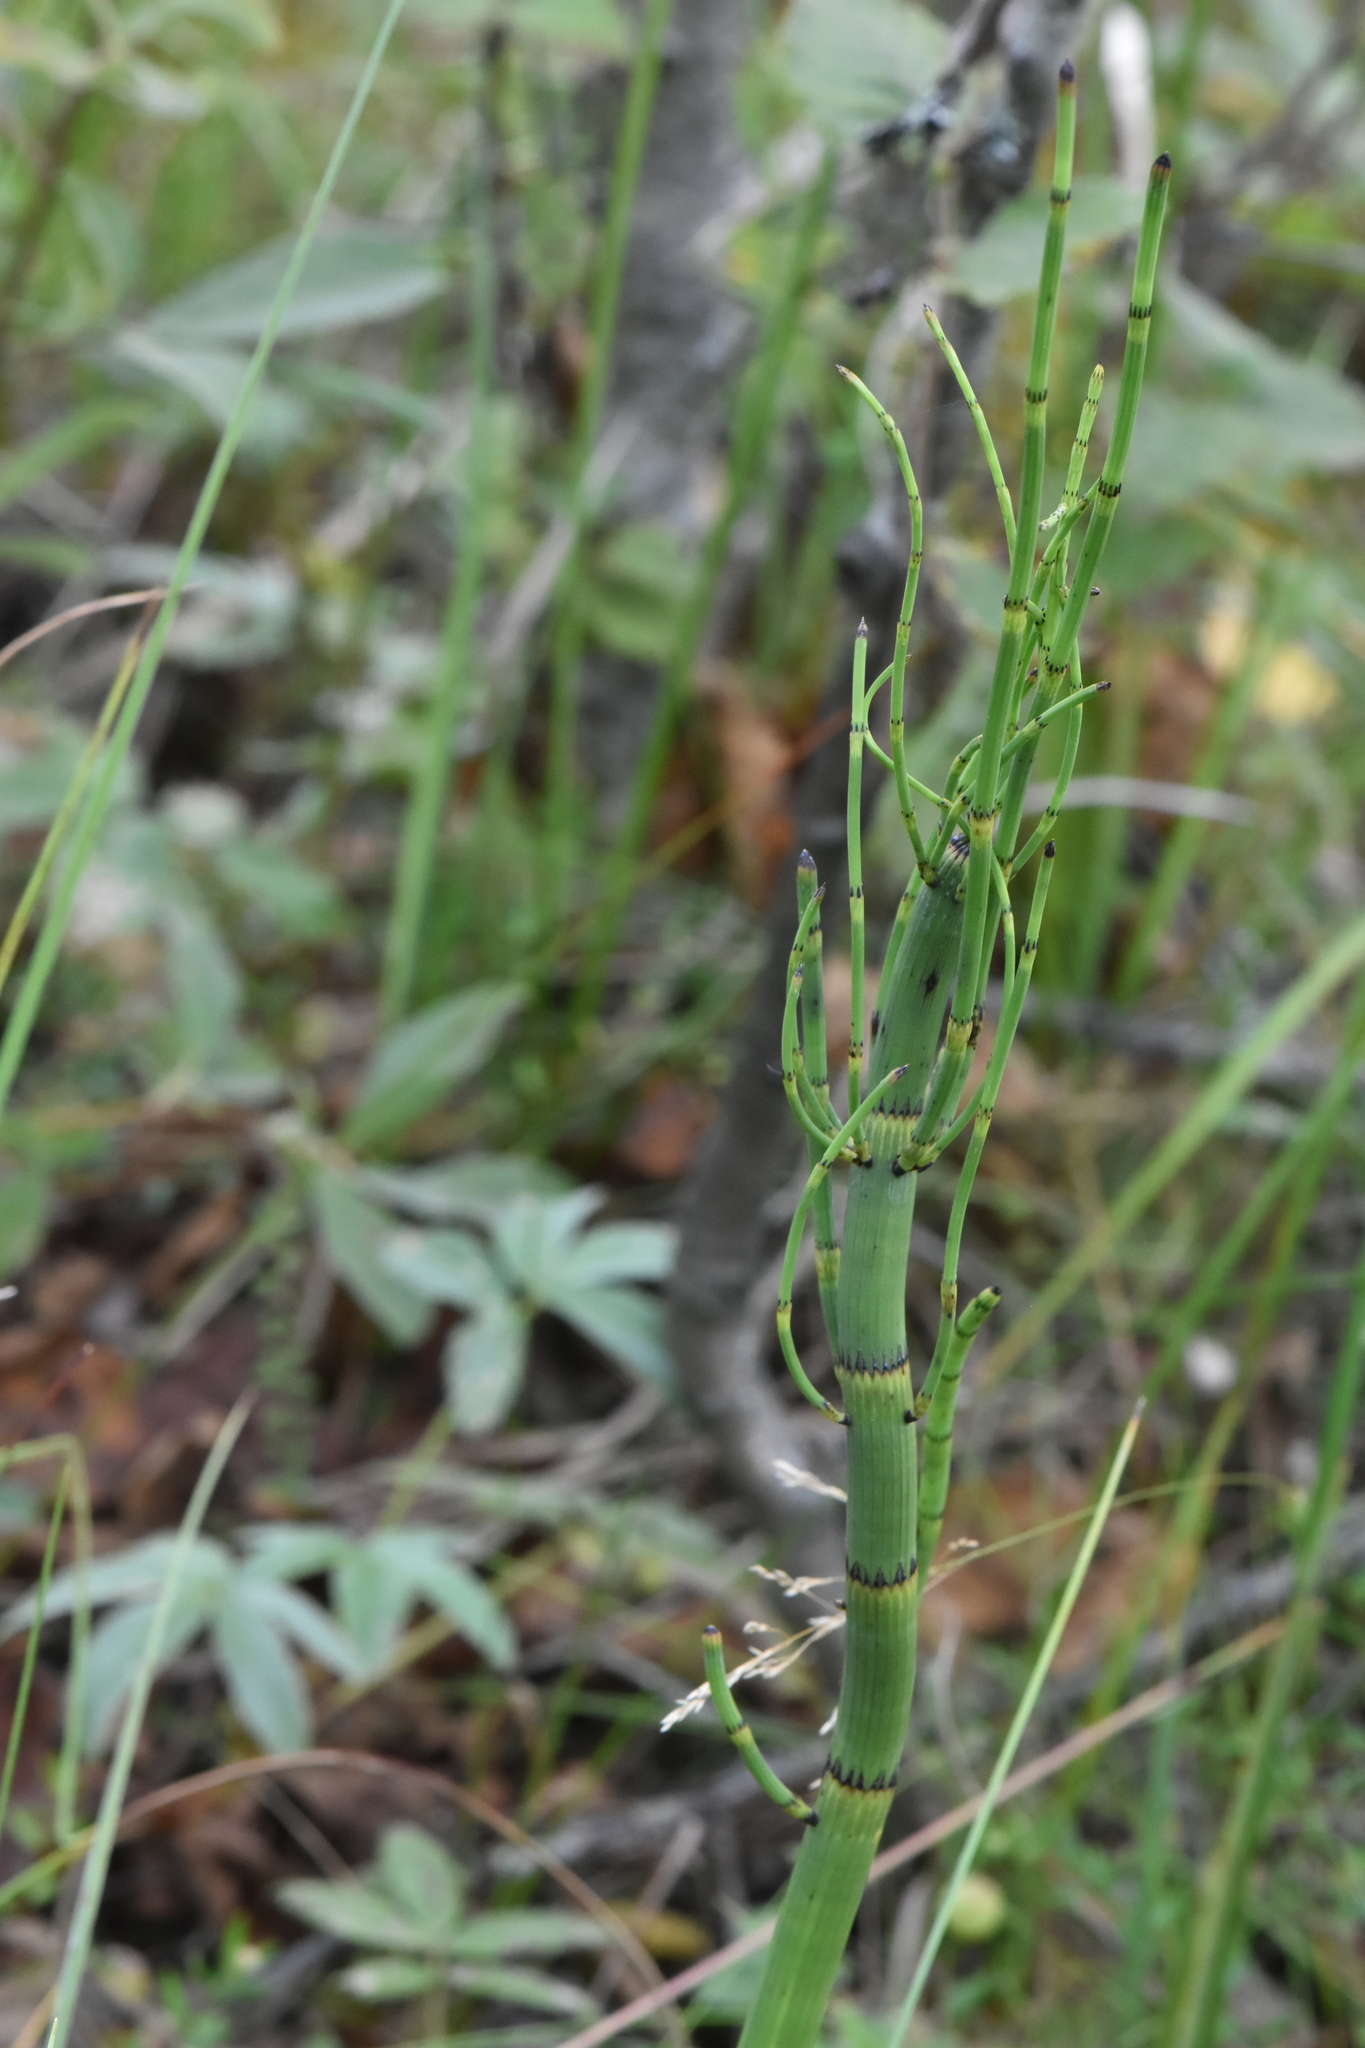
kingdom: Plantae
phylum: Tracheophyta
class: Polypodiopsida
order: Equisetales
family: Equisetaceae
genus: Equisetum
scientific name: Equisetum fluviatile
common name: Water horsetail
